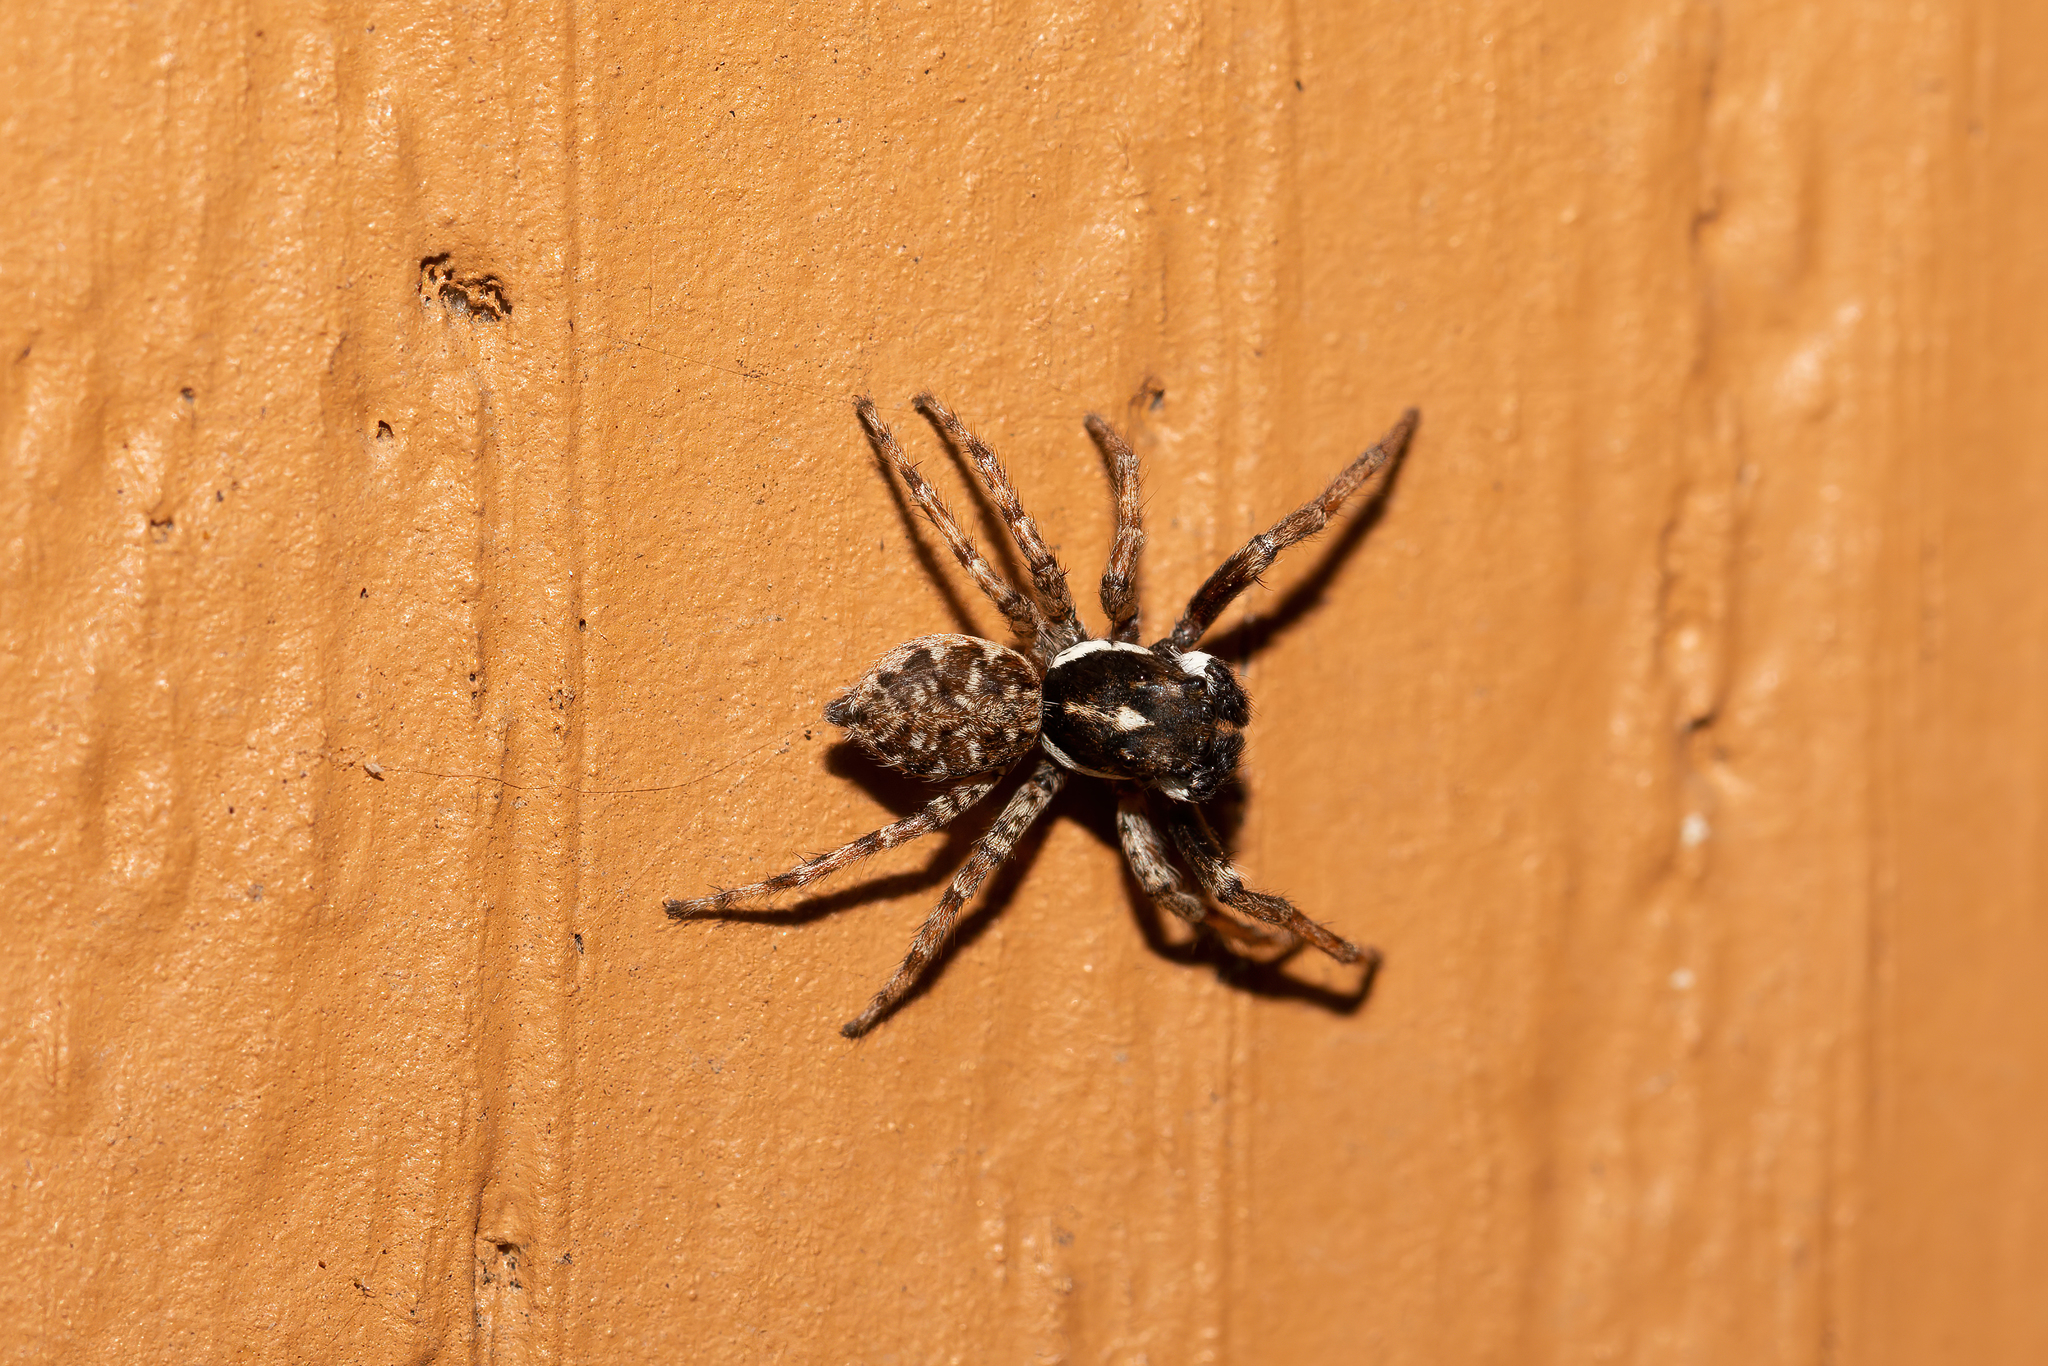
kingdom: Animalia
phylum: Arthropoda
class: Arachnida
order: Araneae
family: Salticidae
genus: Menemerus
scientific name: Menemerus semilimbatus
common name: Jumping spider
